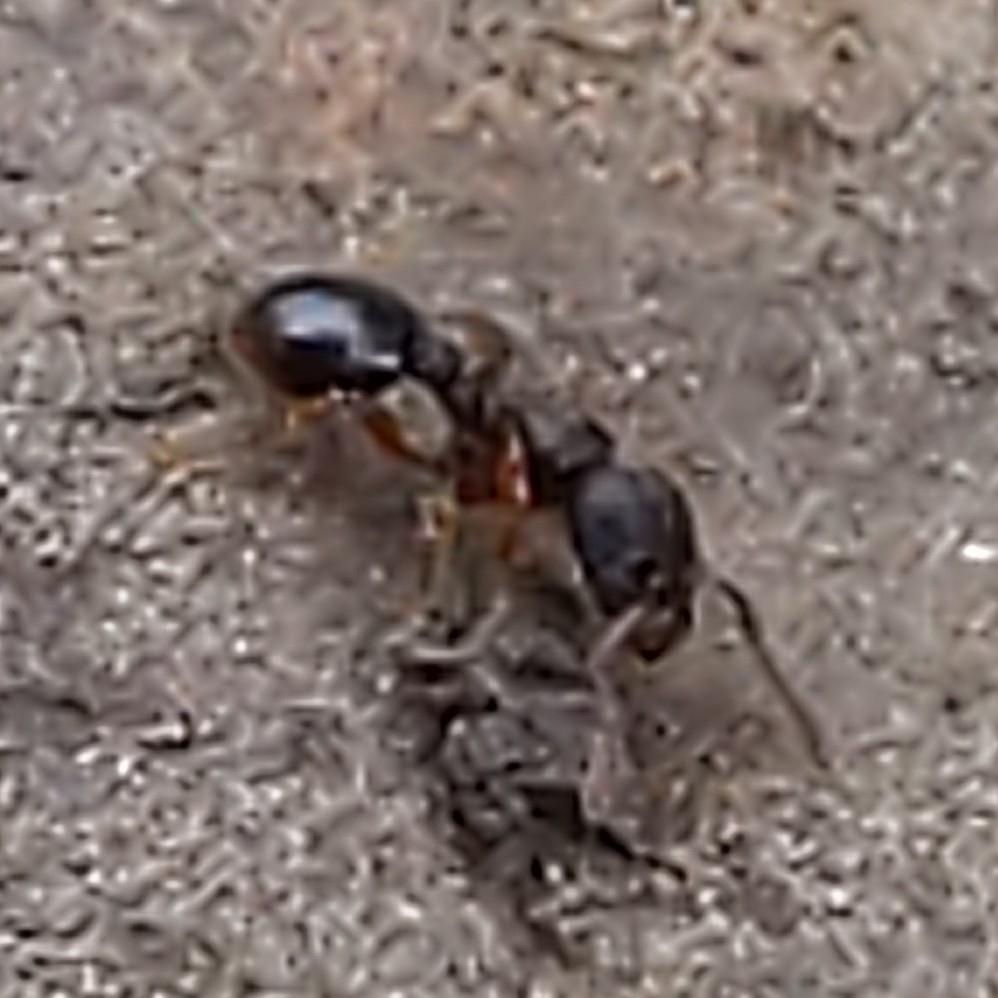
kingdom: Animalia
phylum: Arthropoda
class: Insecta
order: Hymenoptera
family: Formicidae
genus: Myrmecina
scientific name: Myrmecina americana
